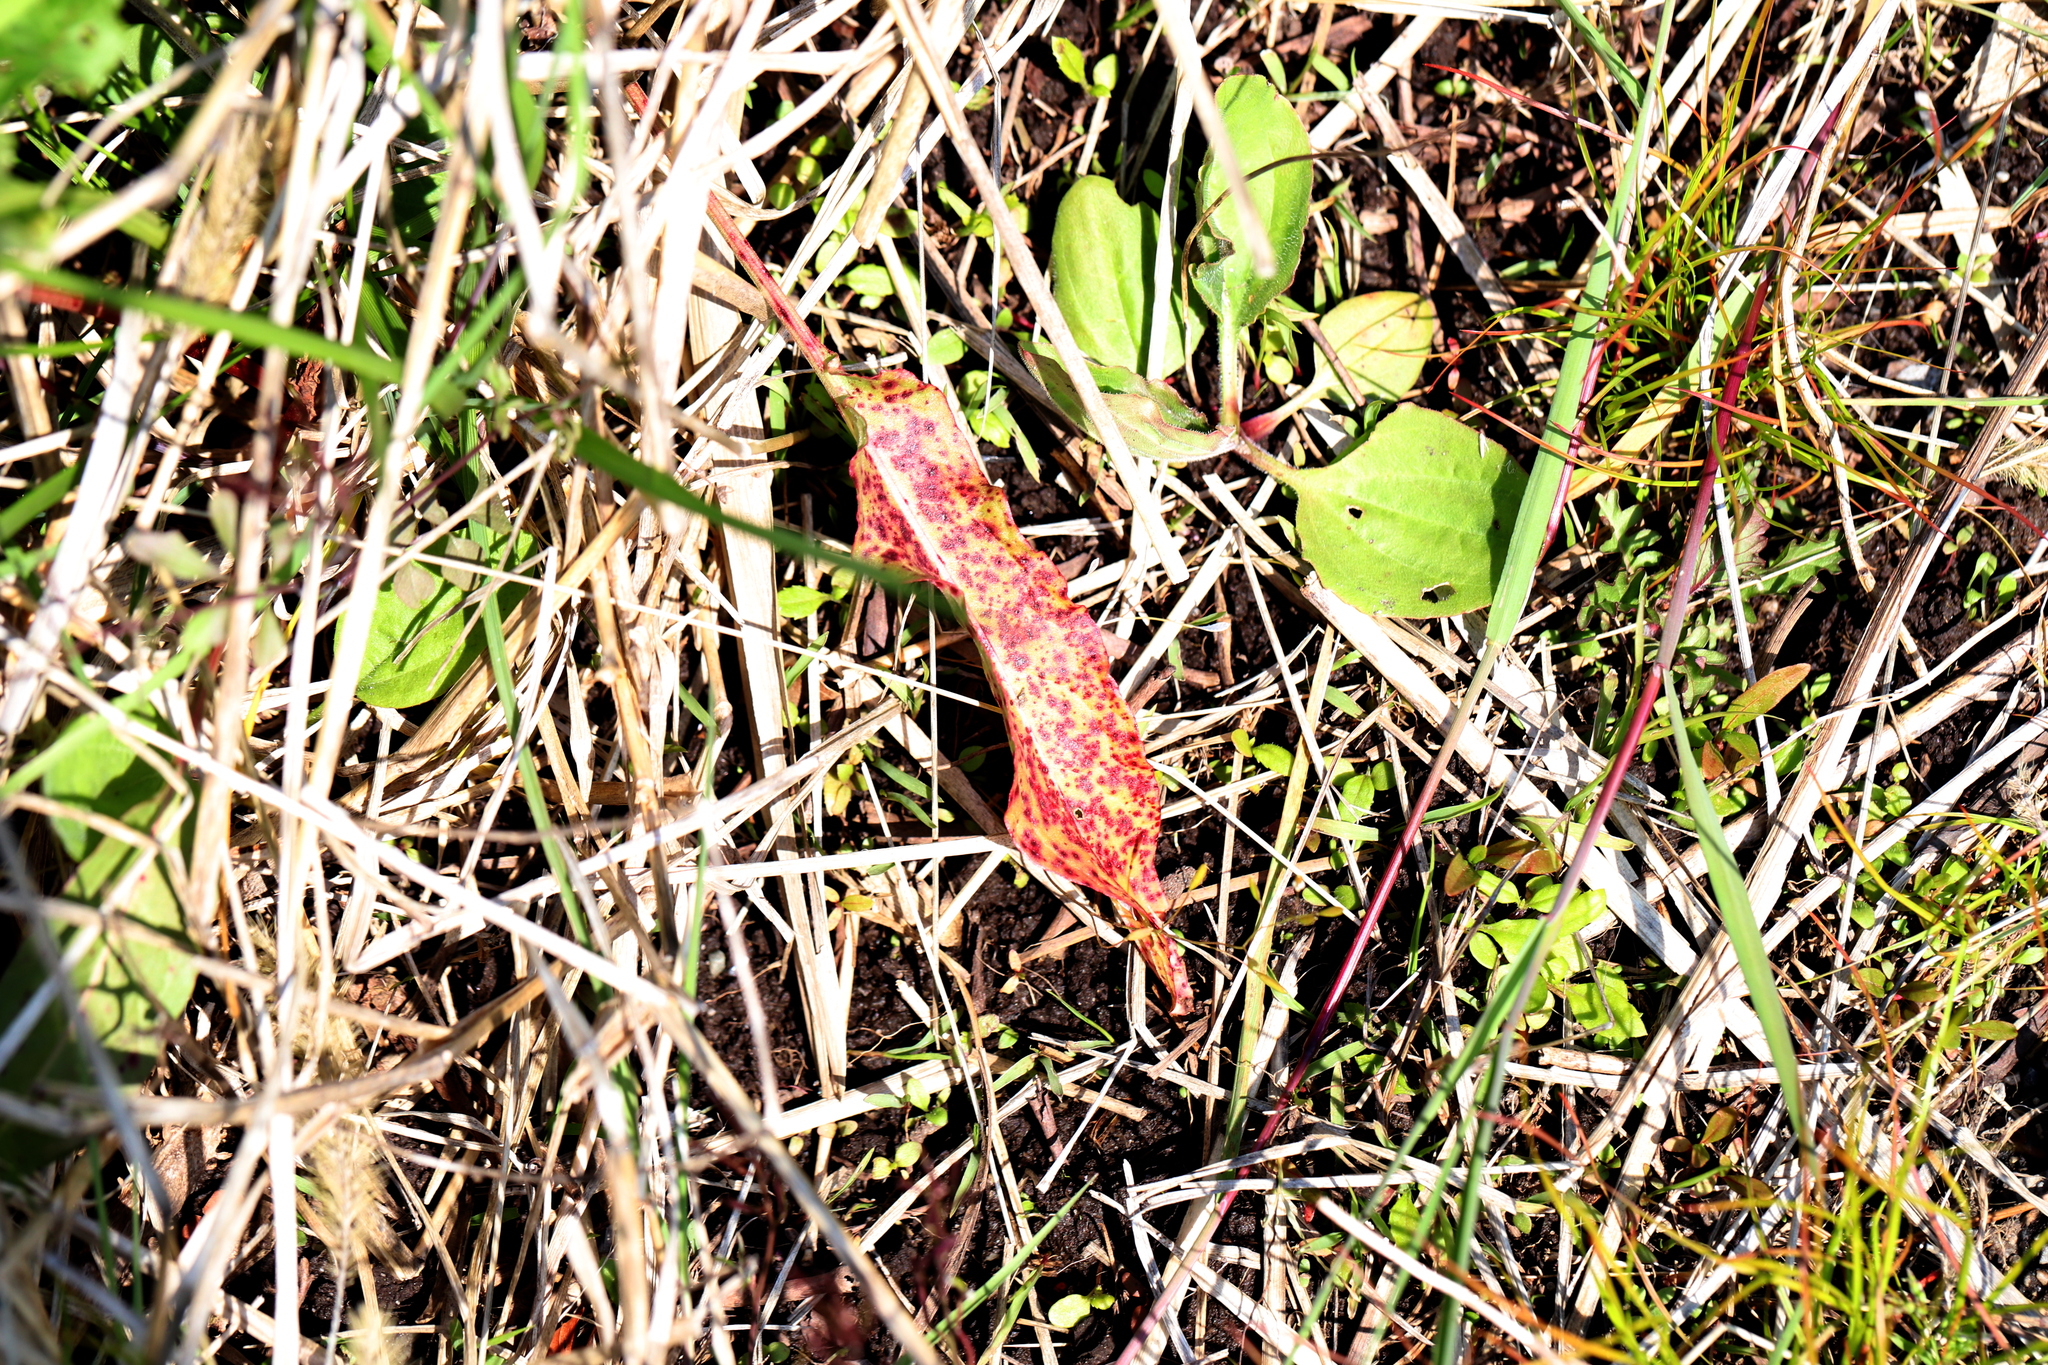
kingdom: Fungi
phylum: Ascomycota
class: Dothideomycetes
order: Mycosphaerellales
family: Mycosphaerellaceae
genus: Ramularia
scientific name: Ramularia rubella
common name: Red dock spot
